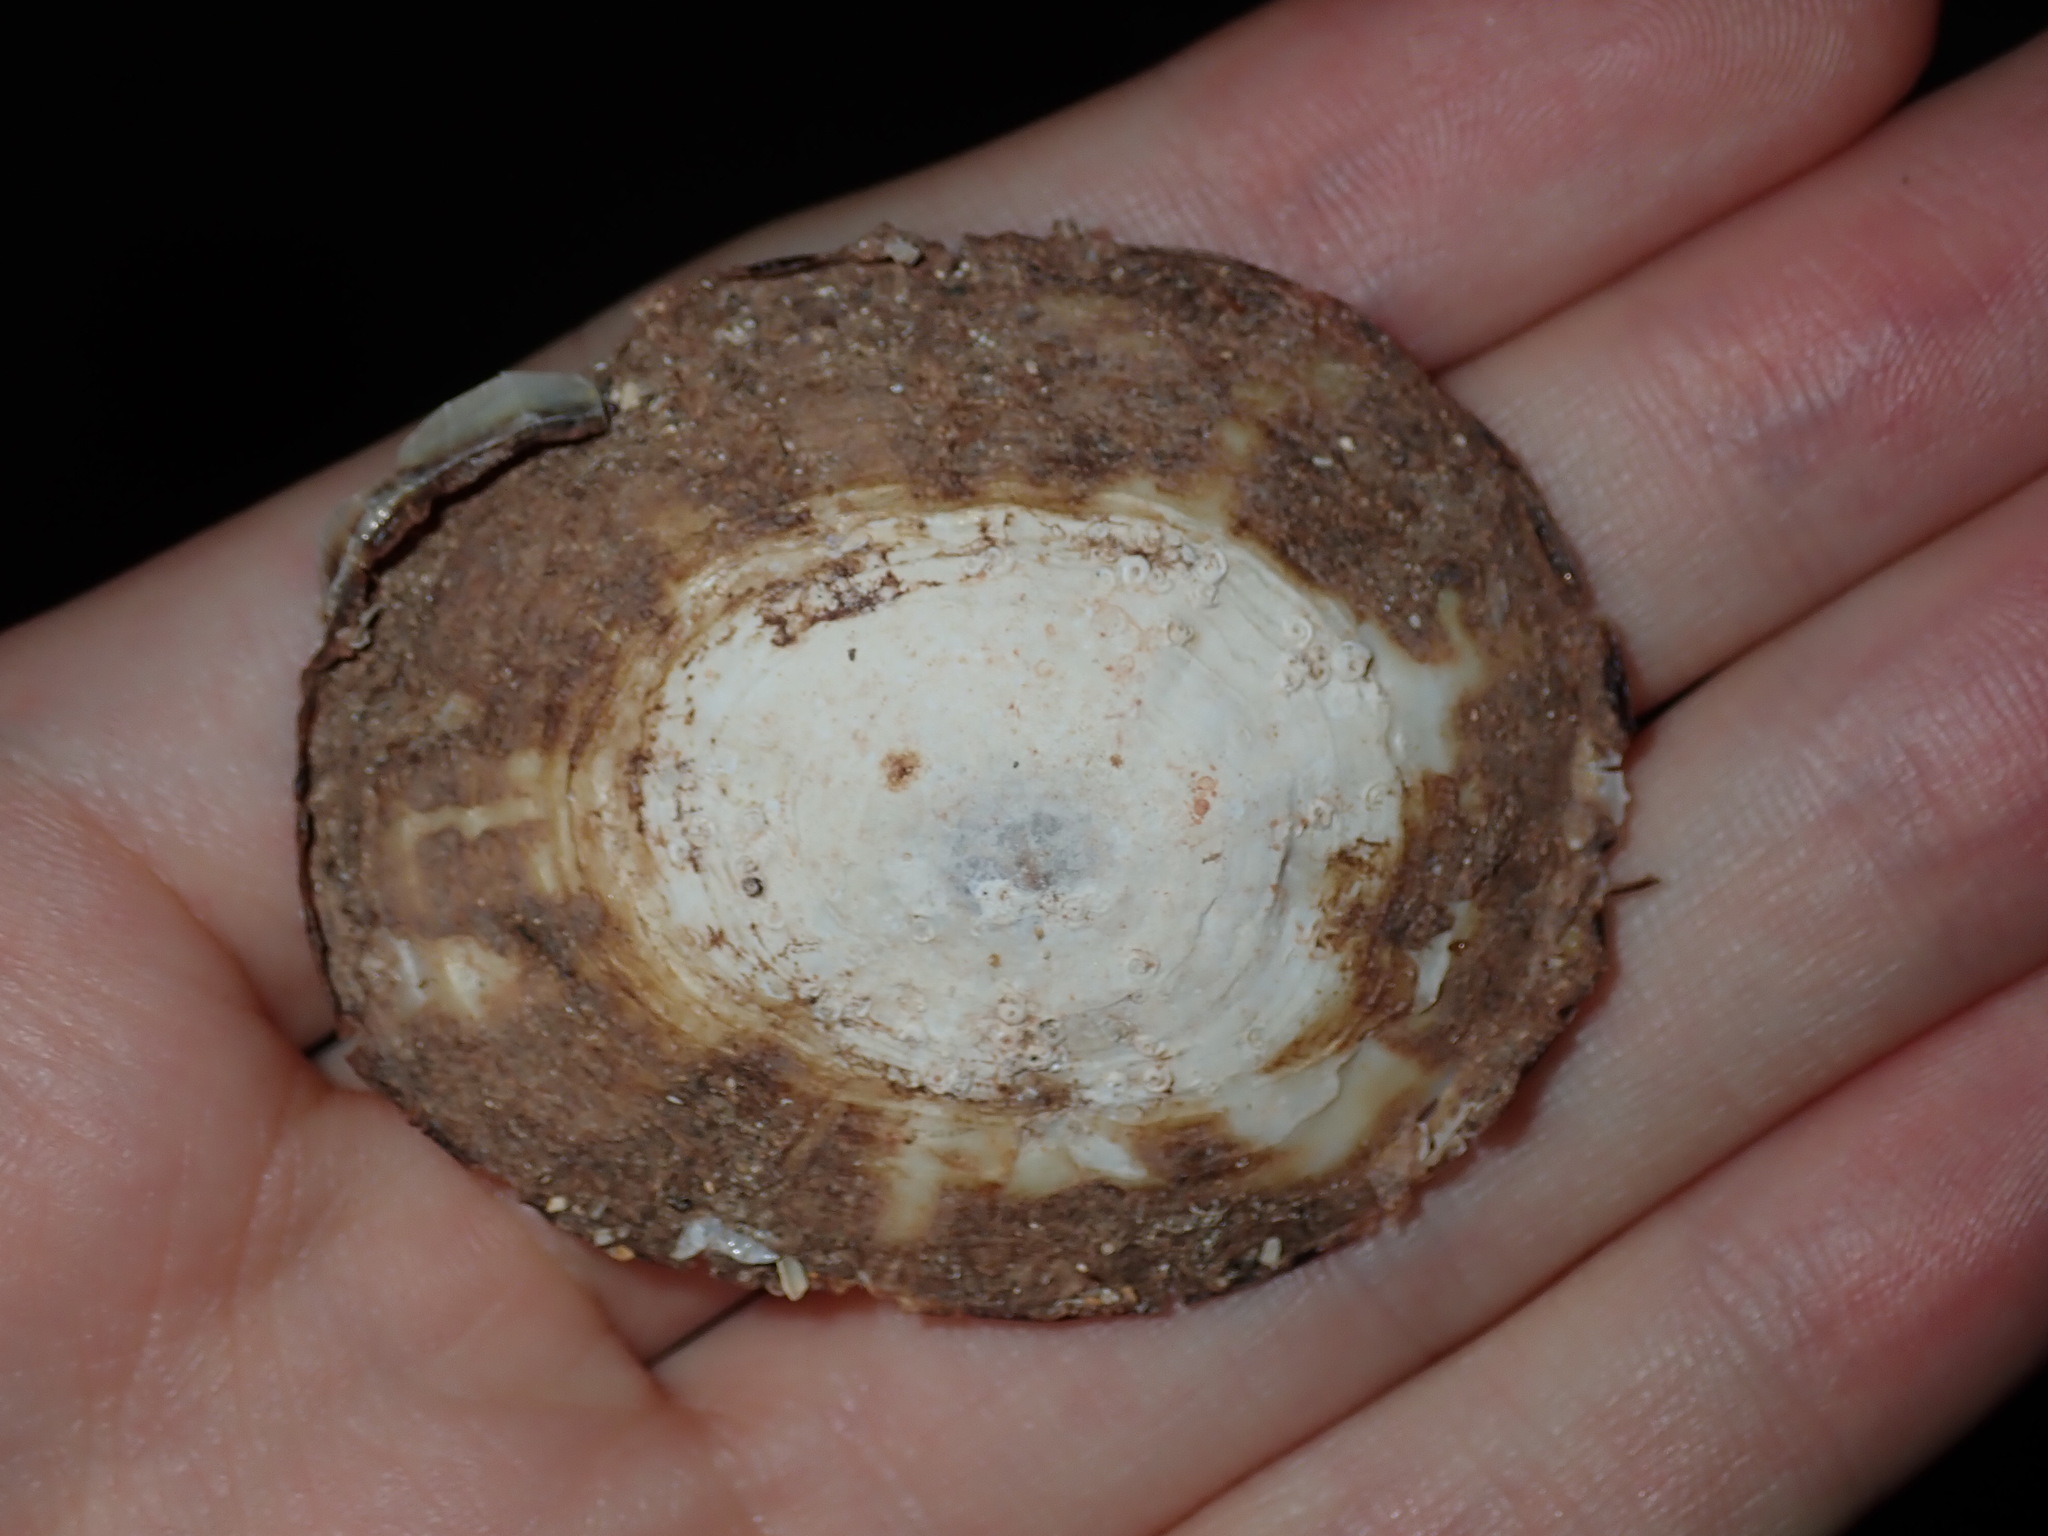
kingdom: Animalia
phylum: Mollusca
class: Gastropoda
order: Umbraculida
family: Umbraculidae
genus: Umbraculum
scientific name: Umbraculum umbraculum
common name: Atlantic umbrella slug
